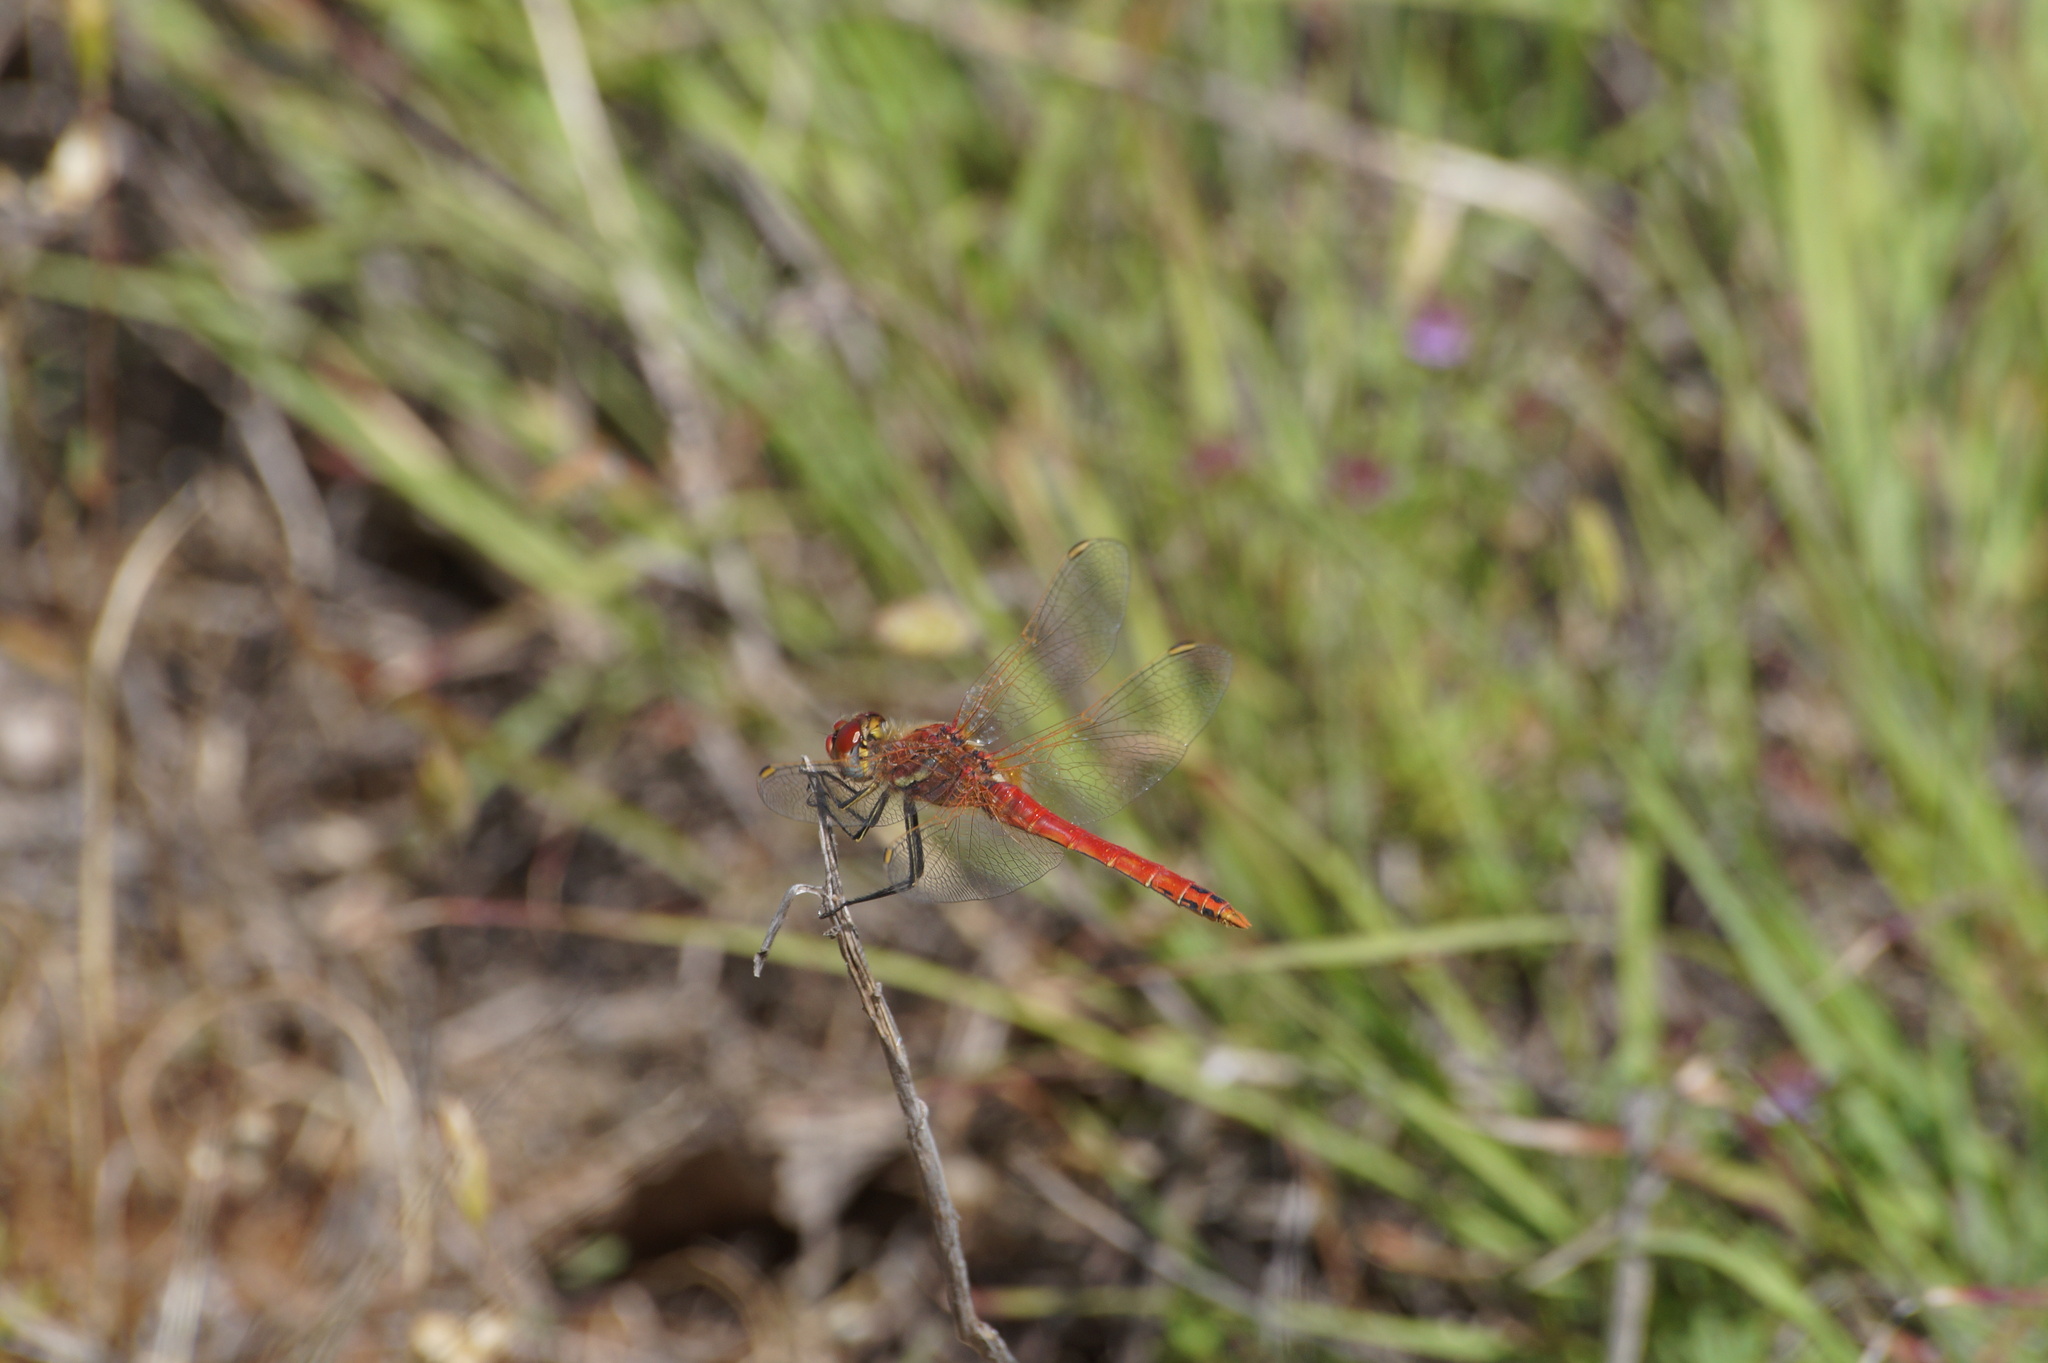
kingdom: Animalia
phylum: Arthropoda
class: Insecta
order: Odonata
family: Libellulidae
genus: Sympetrum
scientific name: Sympetrum fonscolombii
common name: Red-veined darter
